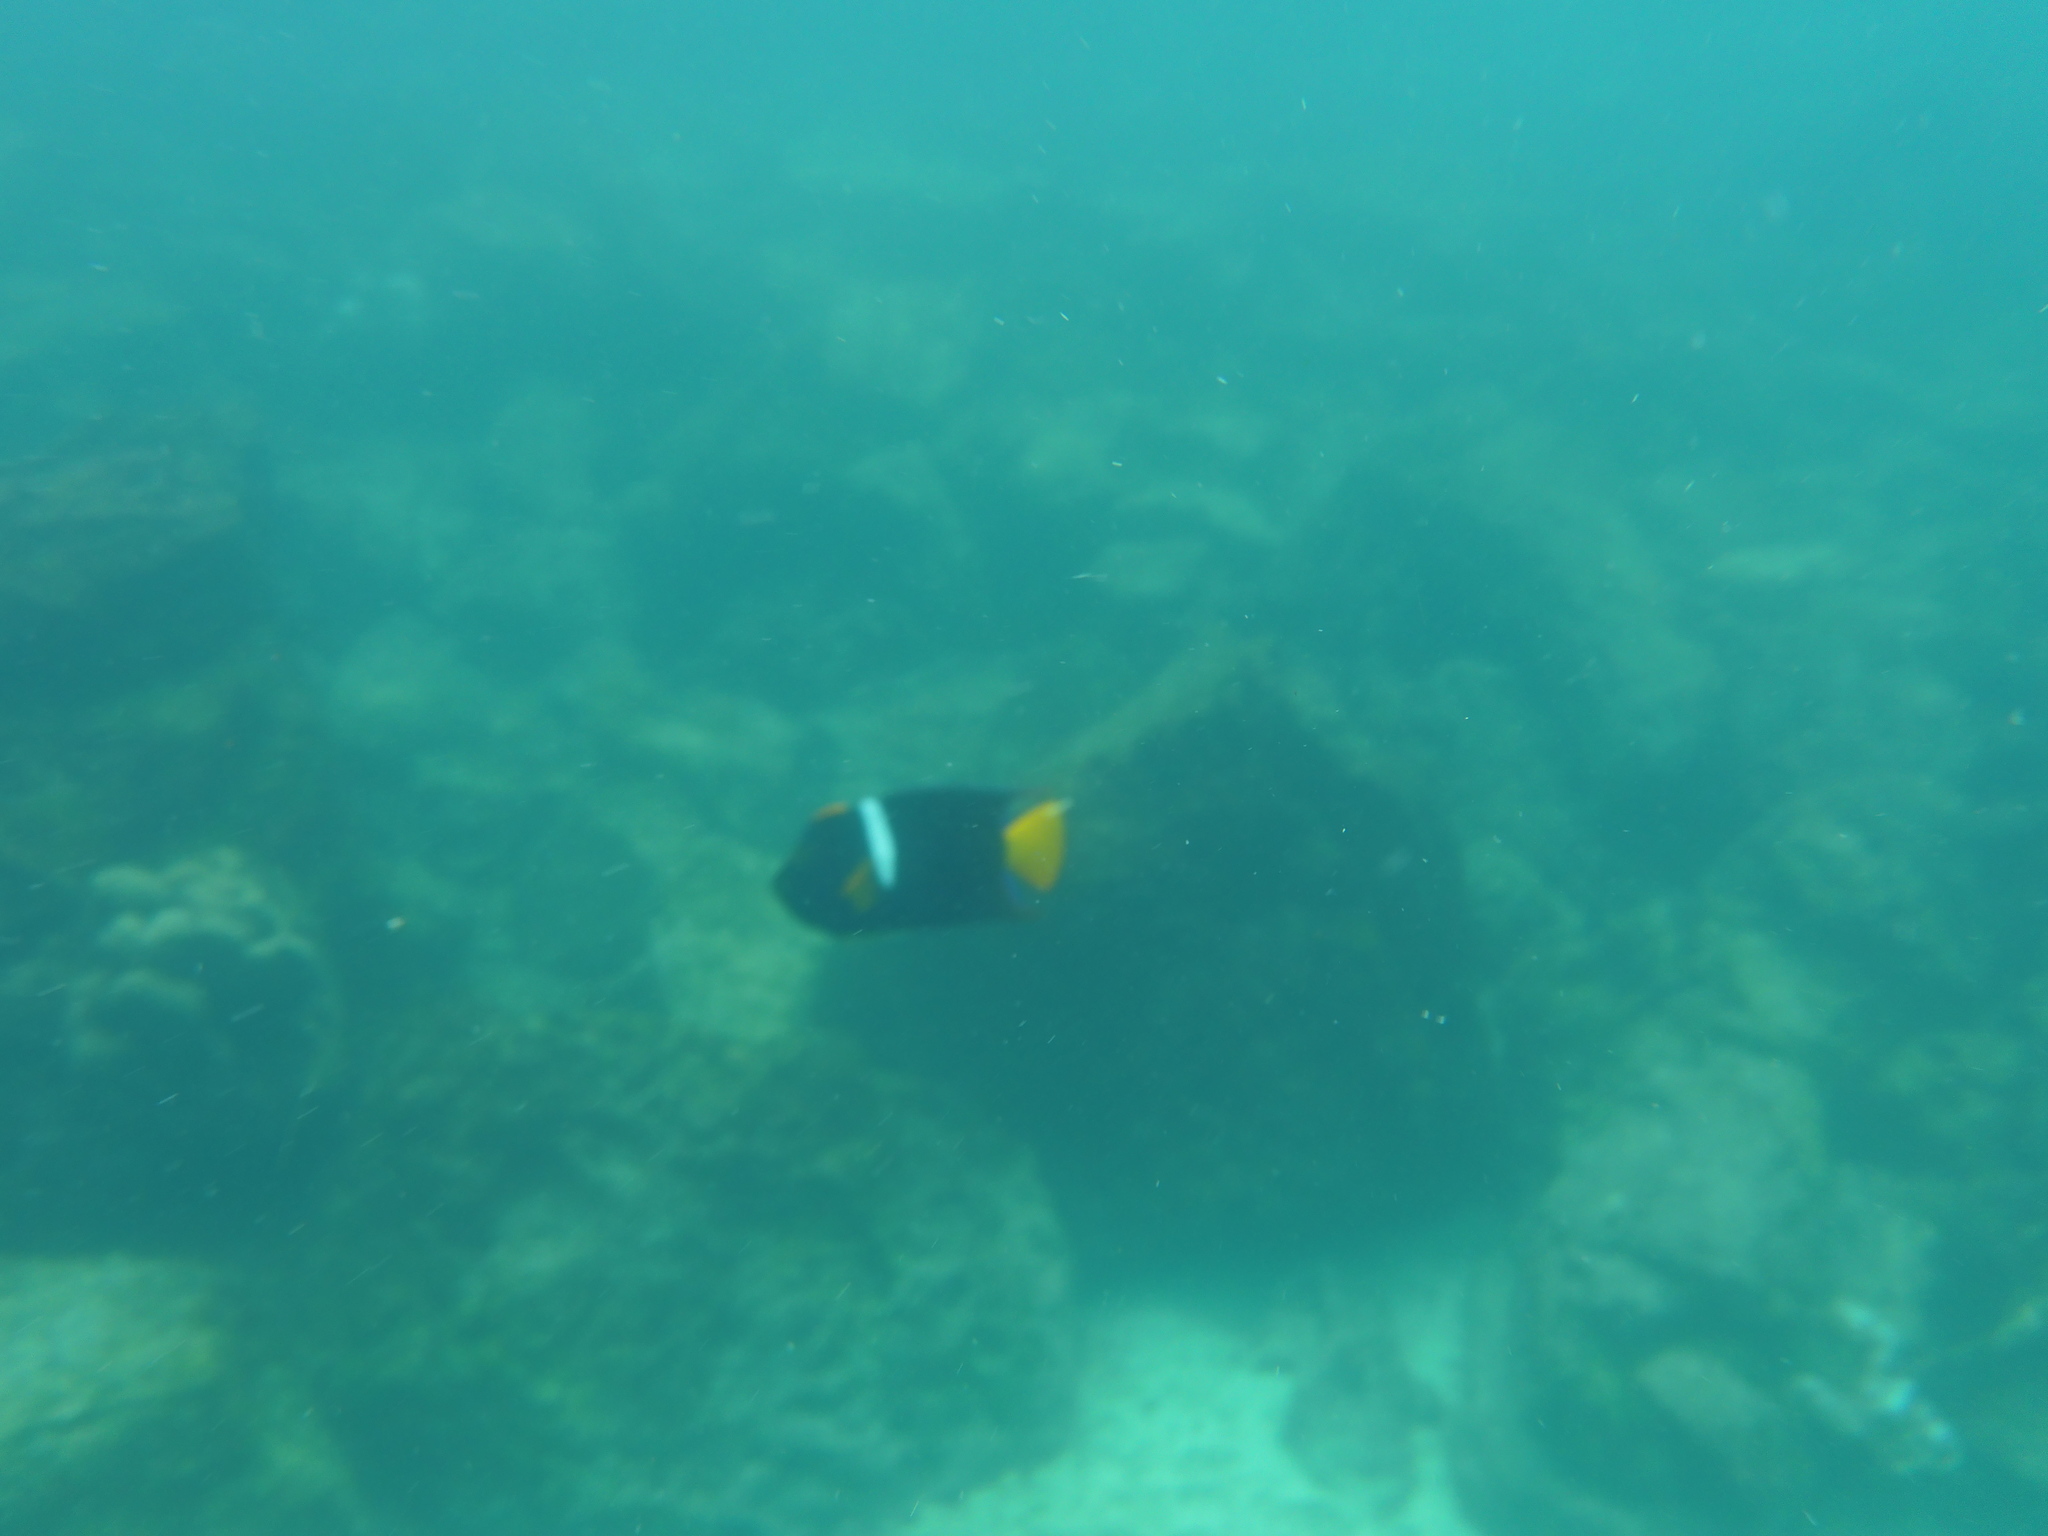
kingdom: Animalia
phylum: Chordata
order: Perciformes
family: Pomacanthidae
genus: Holacanthus
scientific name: Holacanthus passer
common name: King angelfish
